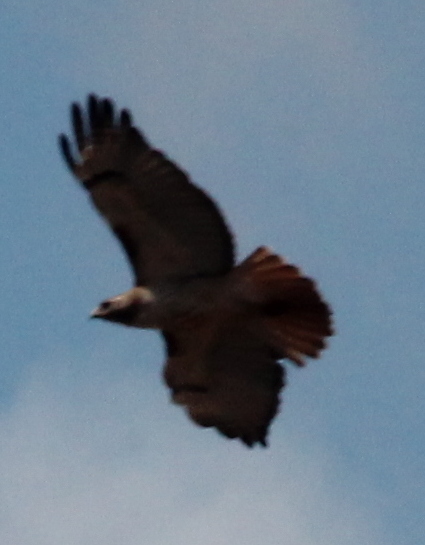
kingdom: Animalia
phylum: Chordata
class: Aves
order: Accipitriformes
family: Accipitridae
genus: Buteo
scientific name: Buteo jamaicensis
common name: Red-tailed hawk
